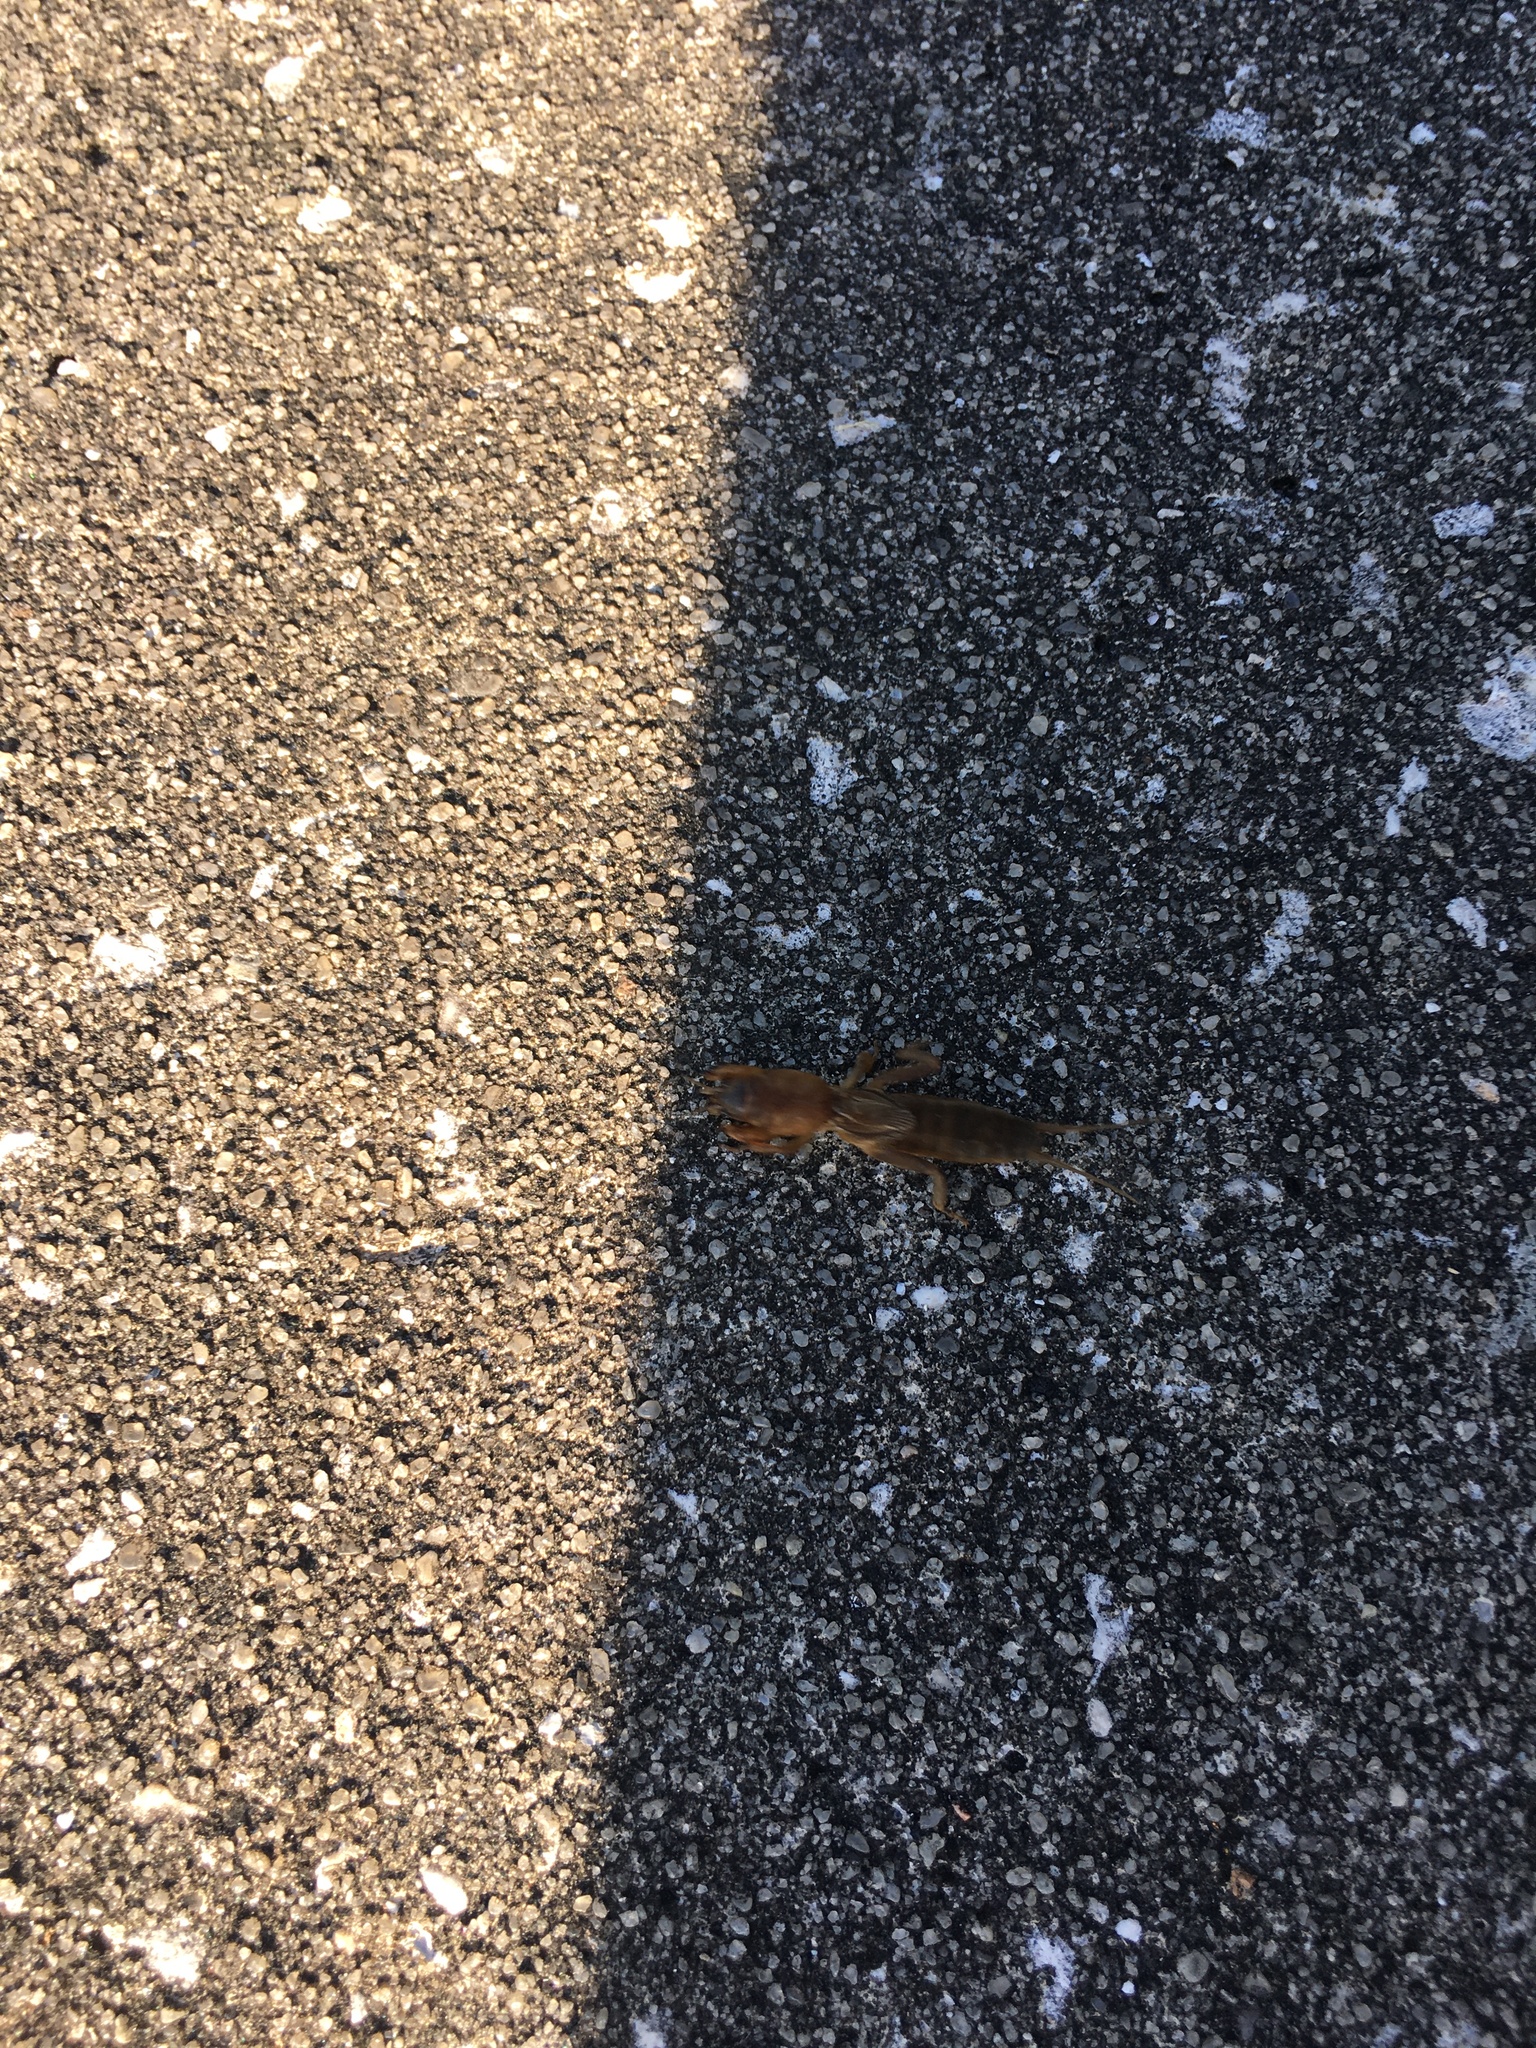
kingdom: Animalia
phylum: Arthropoda
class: Insecta
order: Orthoptera
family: Gryllotalpidae
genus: Neocurtilla
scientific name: Neocurtilla hexadactyla
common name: Northern mole cricket
